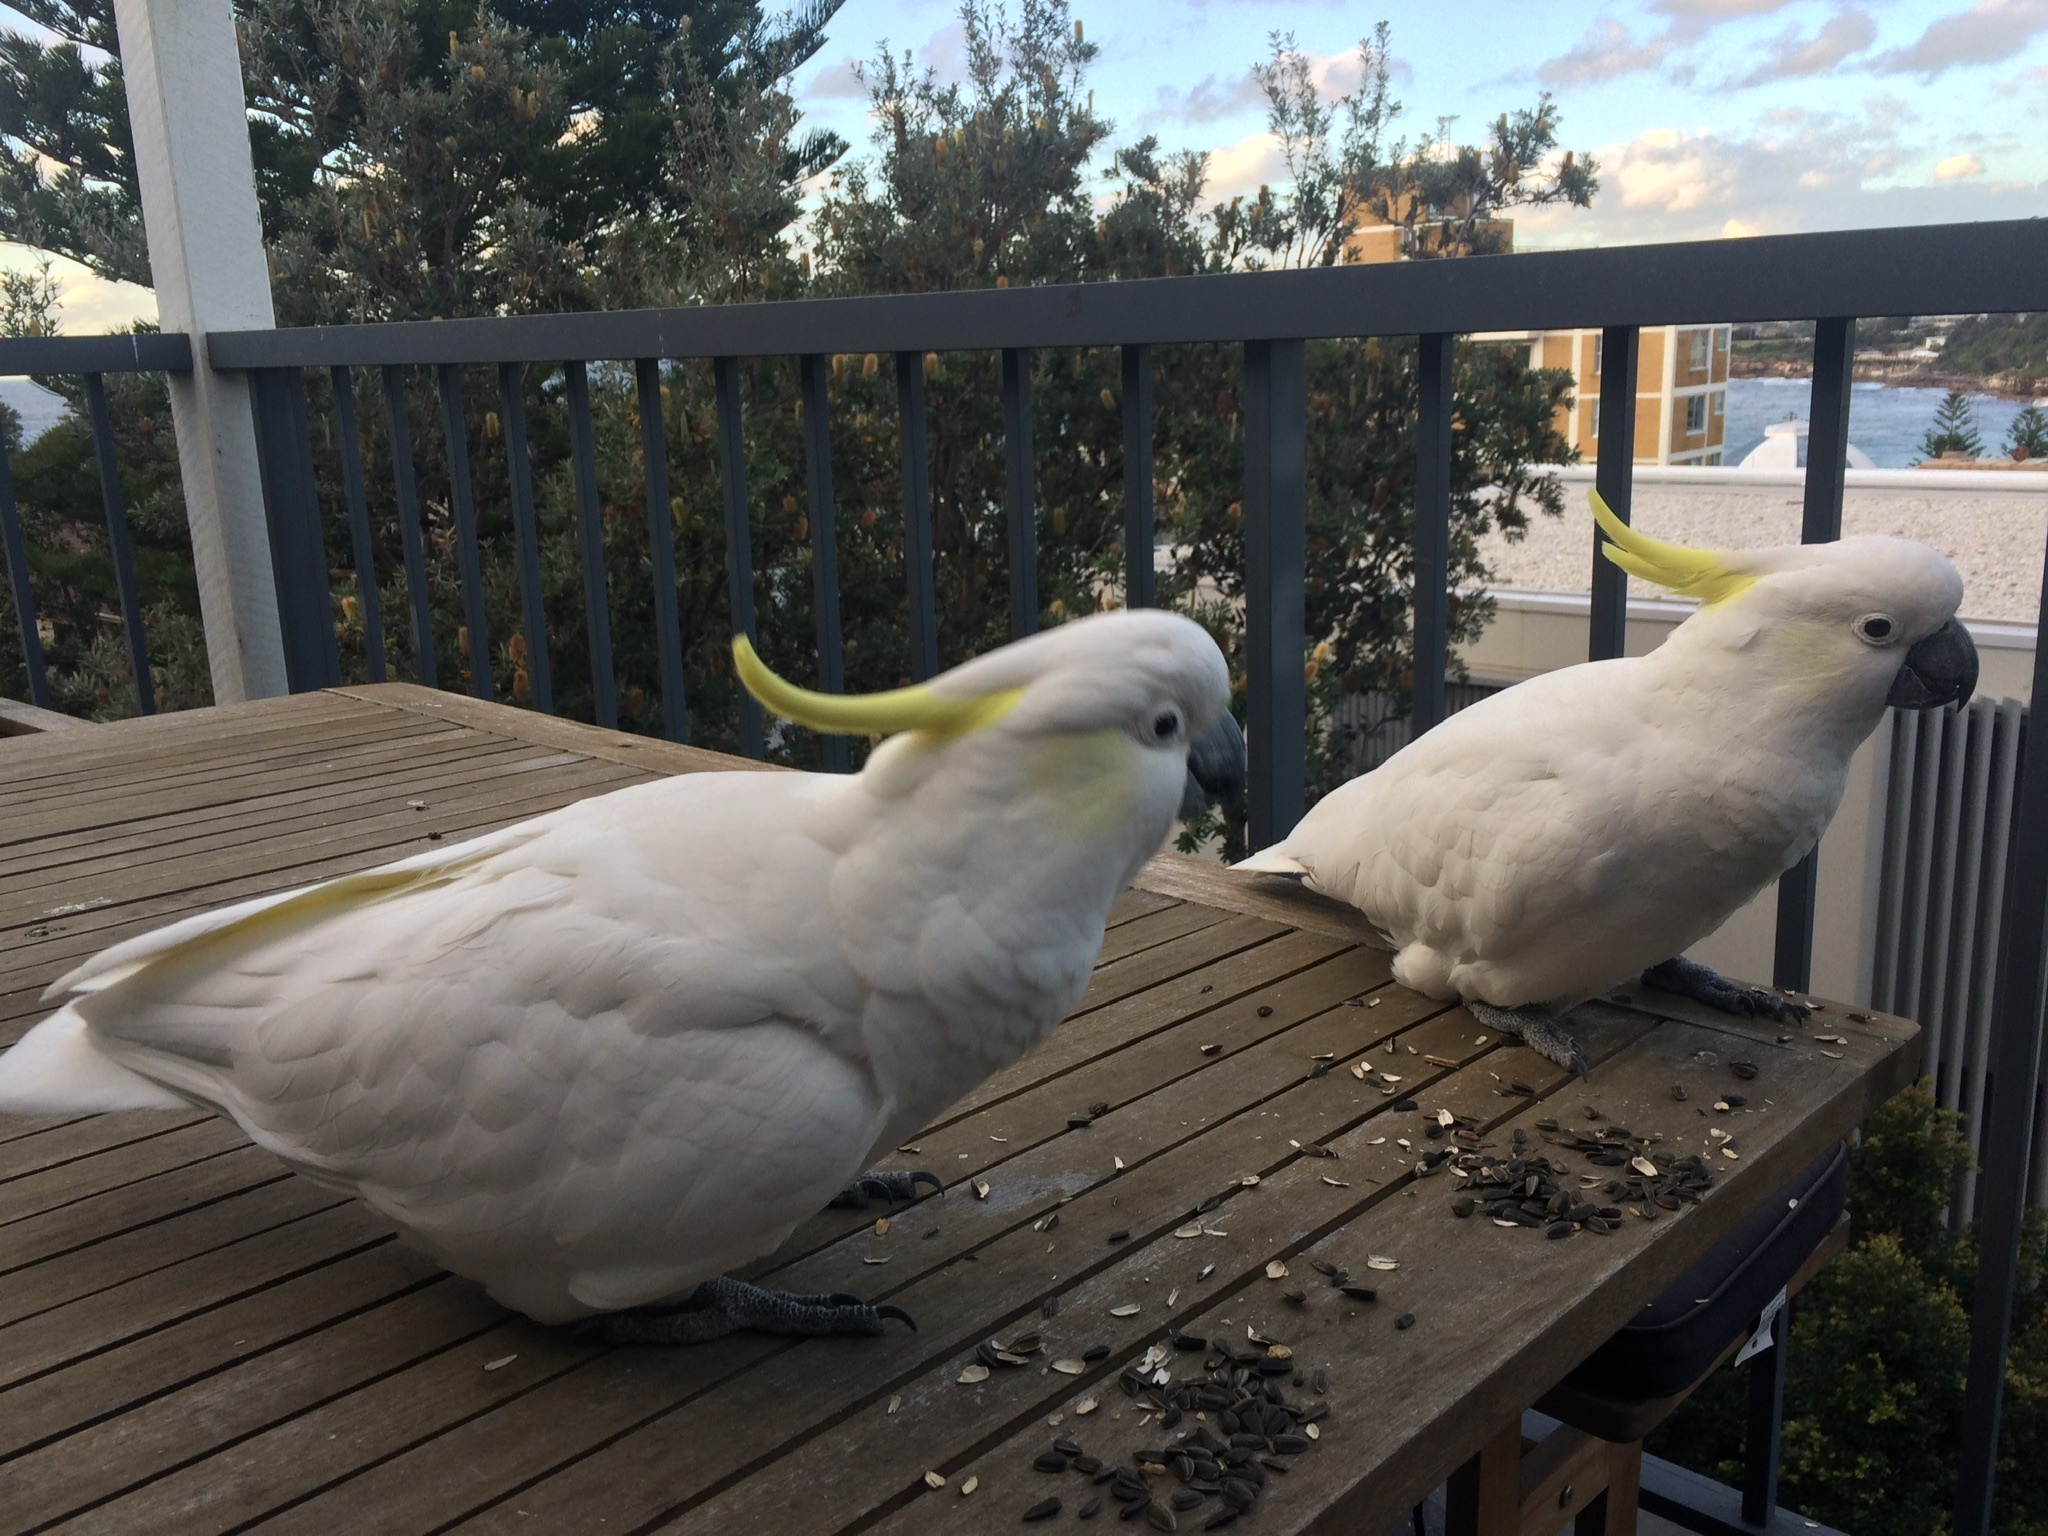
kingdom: Animalia
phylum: Chordata
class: Aves
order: Psittaciformes
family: Psittacidae
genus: Cacatua
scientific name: Cacatua galerita
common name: Sulphur-crested cockatoo
